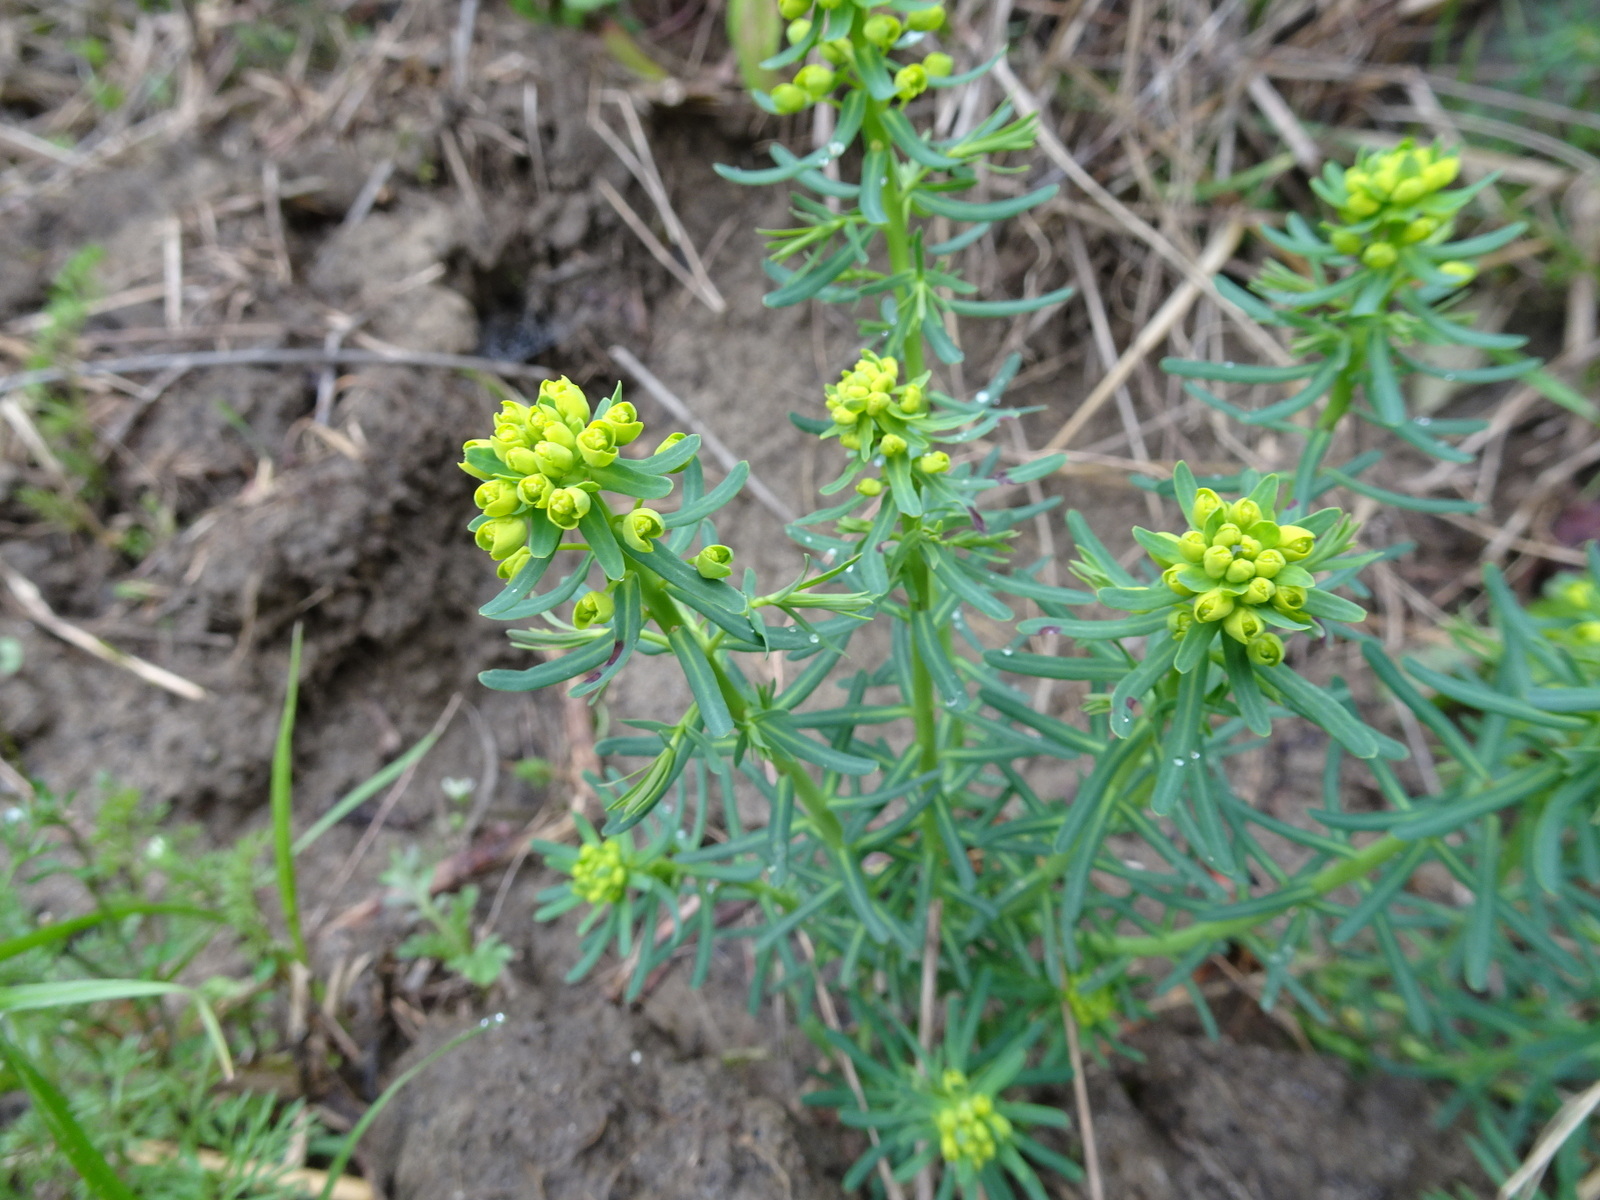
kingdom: Plantae
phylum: Tracheophyta
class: Magnoliopsida
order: Malpighiales
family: Euphorbiaceae
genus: Euphorbia
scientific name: Euphorbia cyparissias
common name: Cypress spurge
